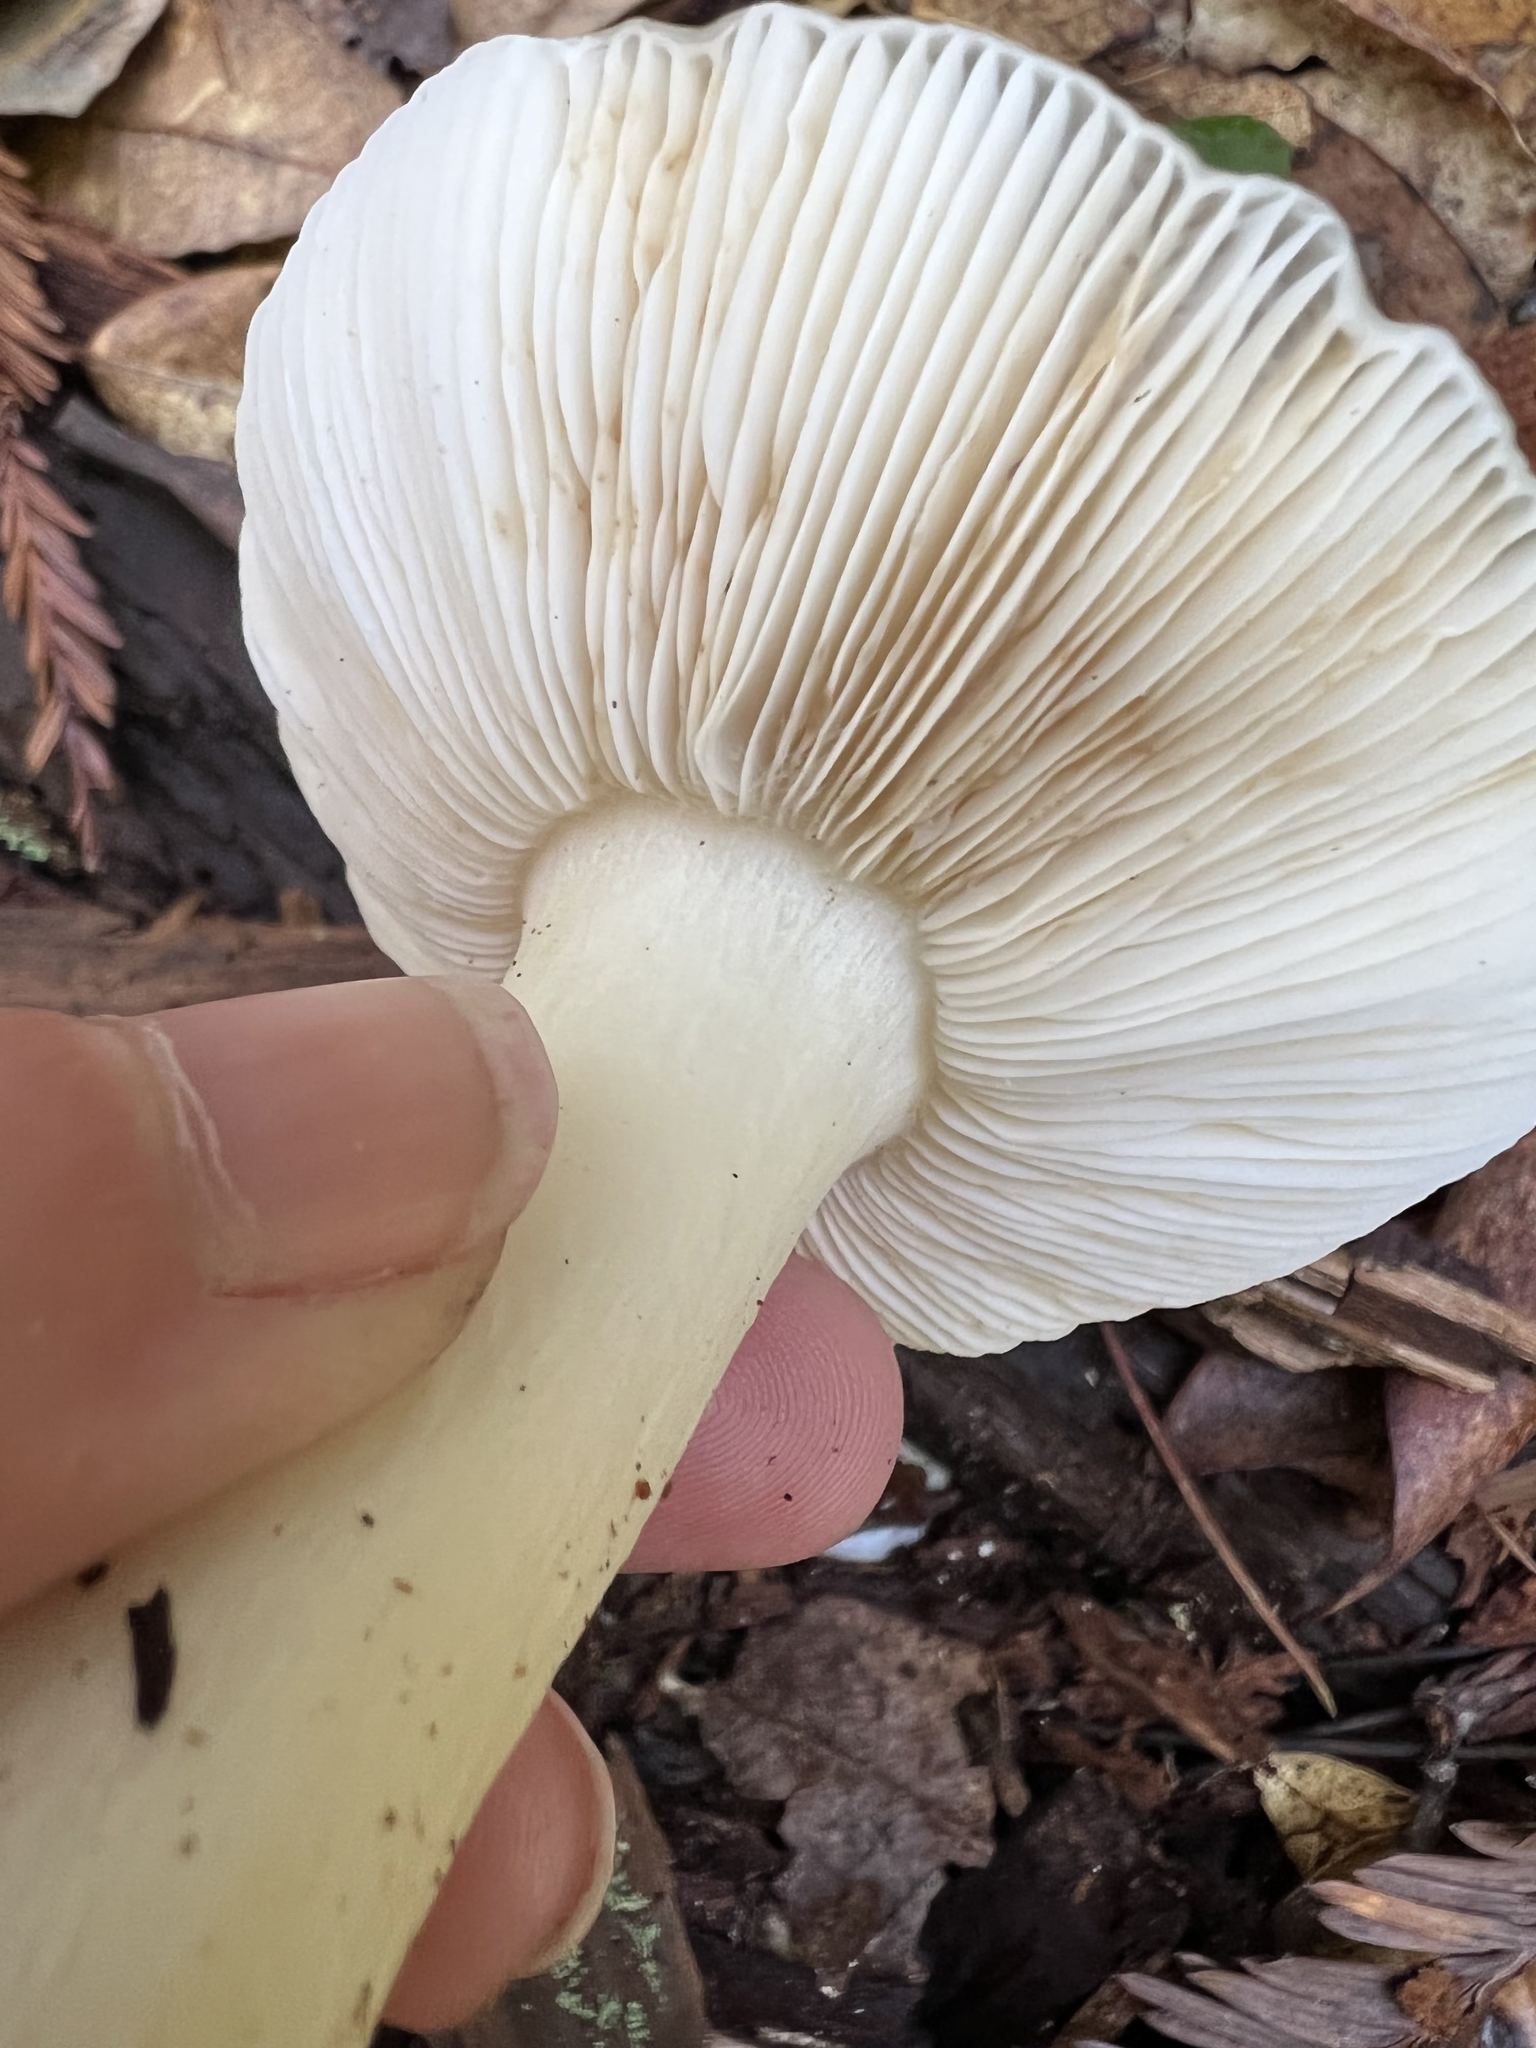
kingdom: Fungi
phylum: Basidiomycota
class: Agaricomycetes
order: Russulales
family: Russulaceae
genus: Russula
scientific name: Russula cremoricolor
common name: Winter russula
